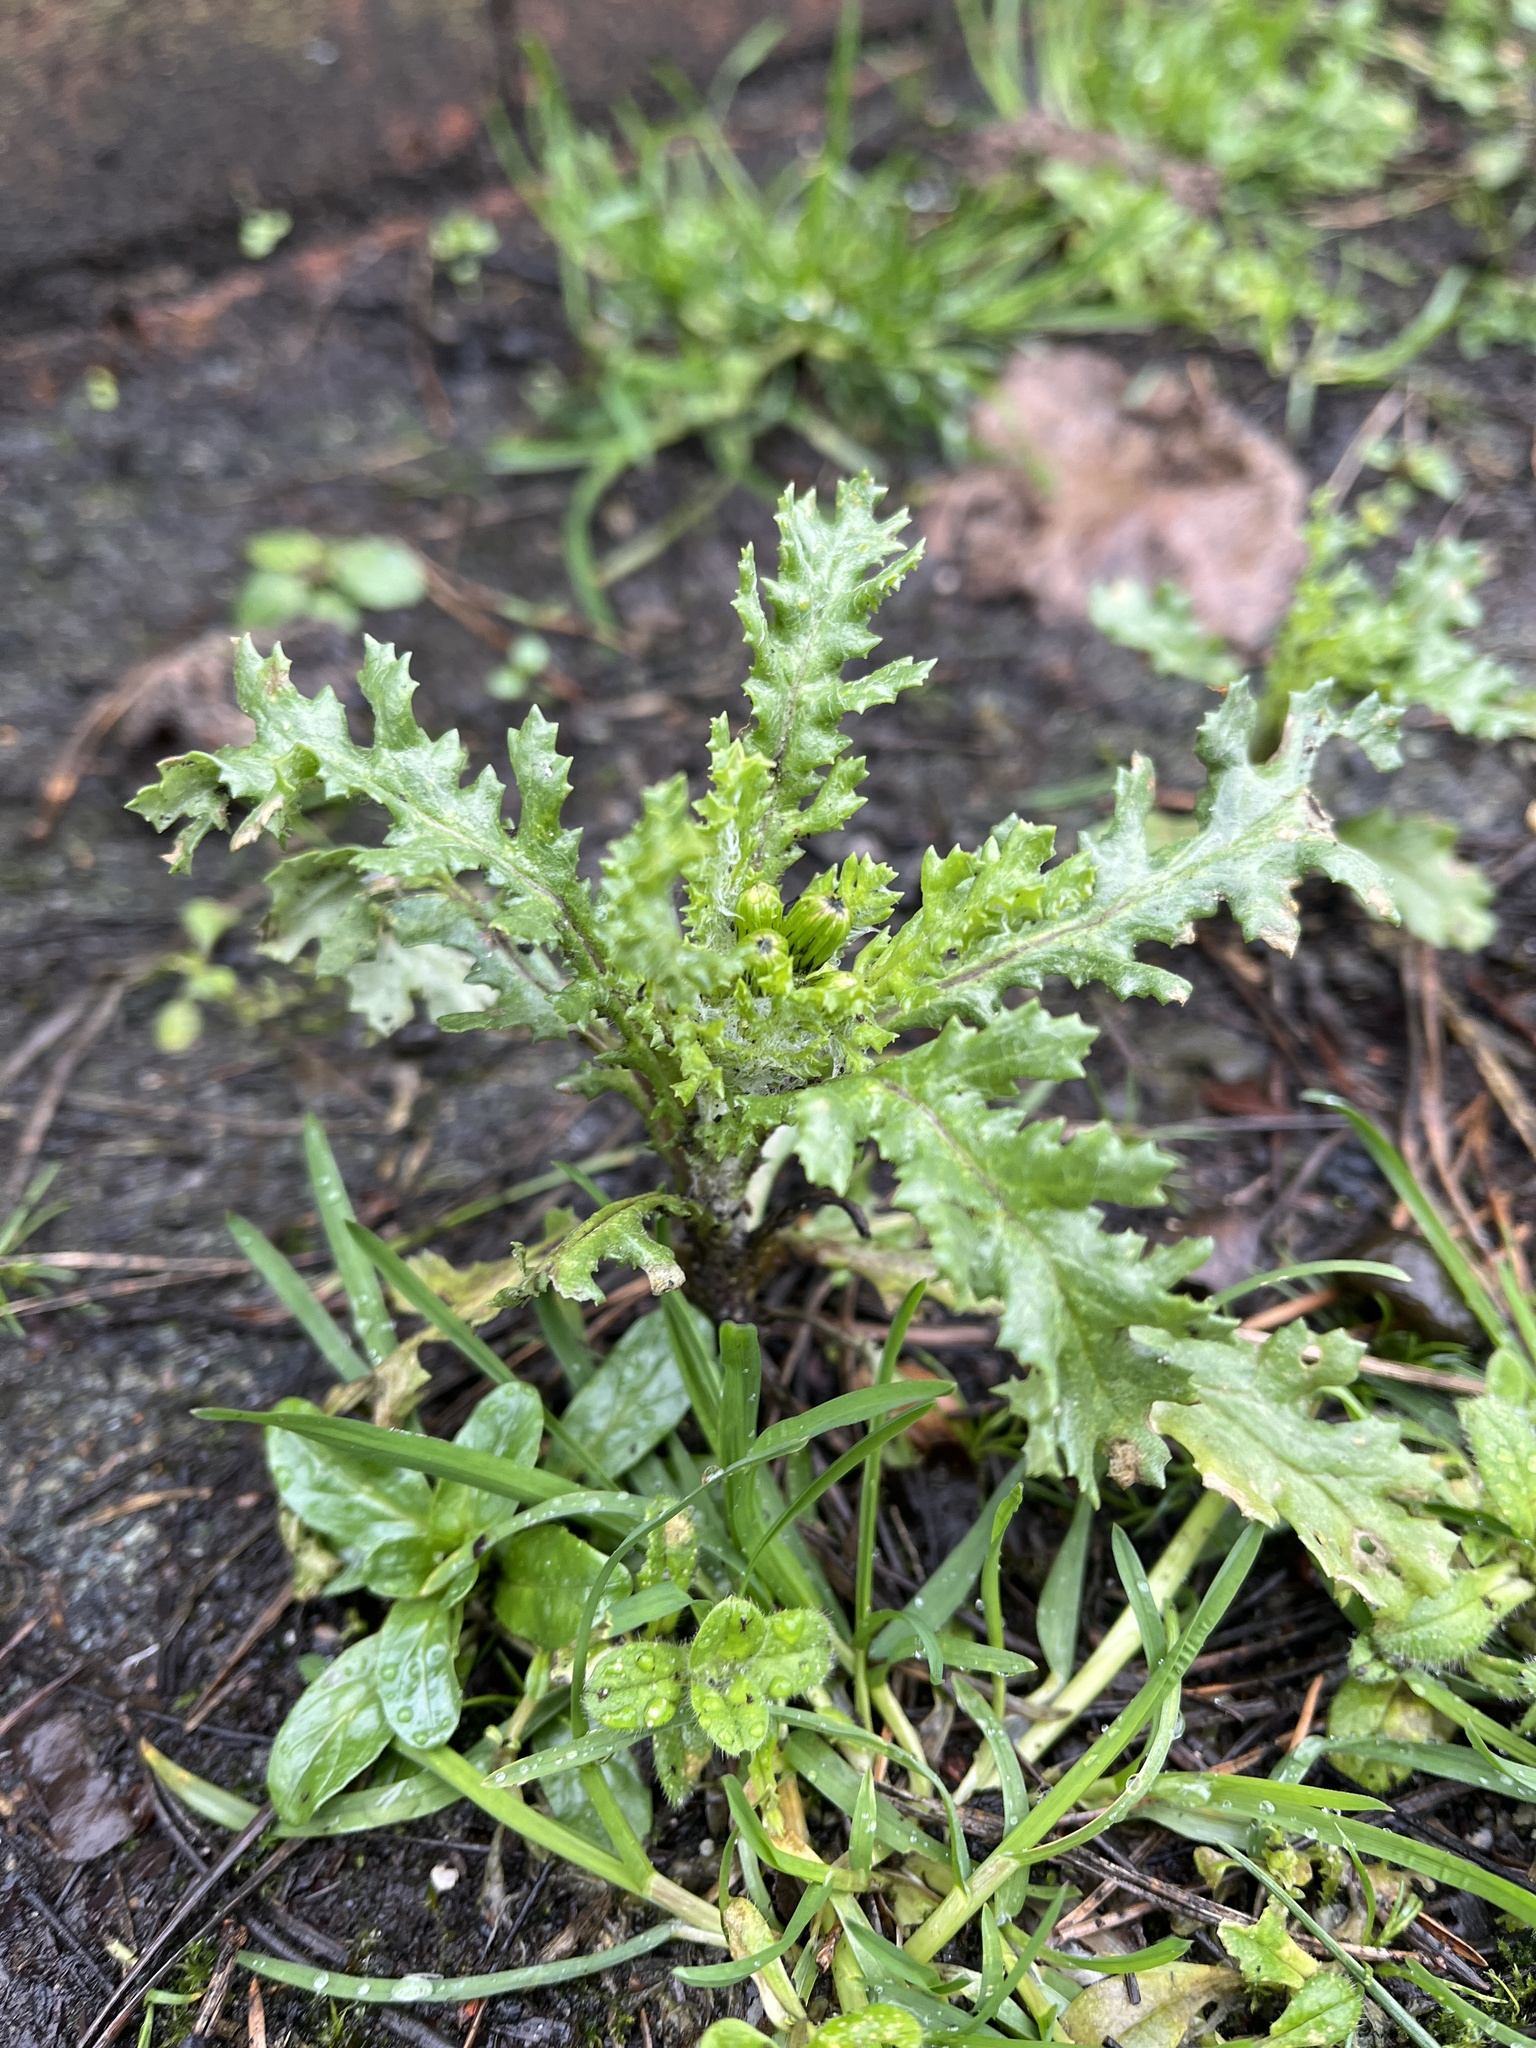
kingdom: Plantae
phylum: Tracheophyta
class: Magnoliopsida
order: Asterales
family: Asteraceae
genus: Senecio
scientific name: Senecio vulgaris
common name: Old-man-in-the-spring
